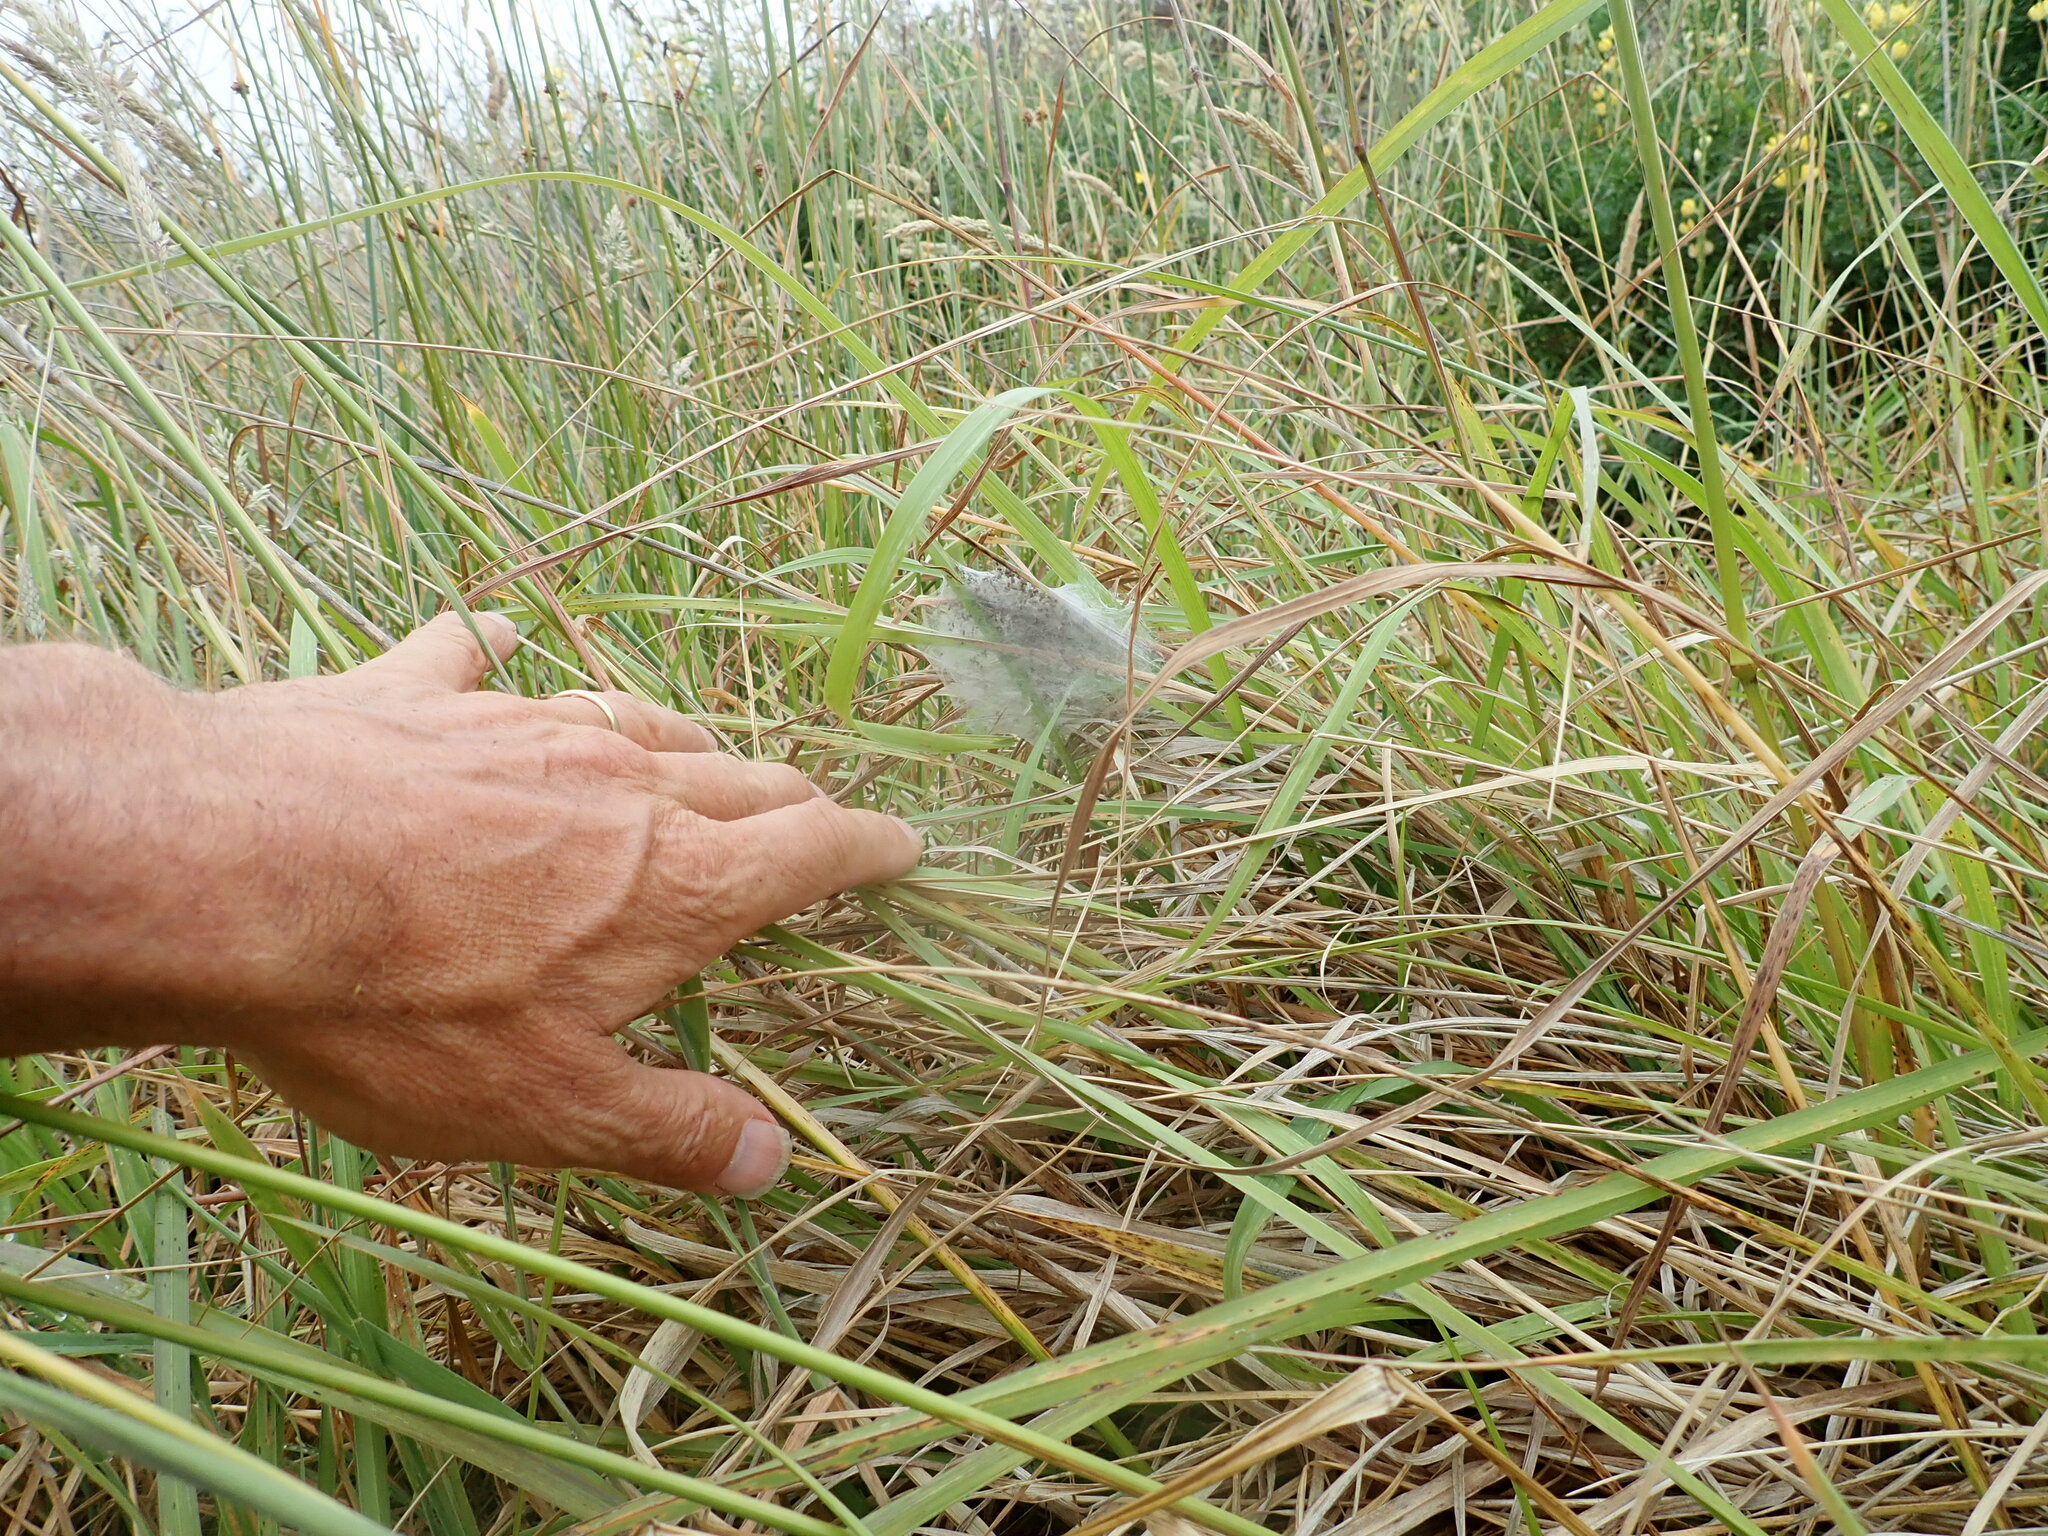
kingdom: Animalia
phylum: Arthropoda
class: Arachnida
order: Araneae
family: Pisauridae
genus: Dolomedes
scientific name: Dolomedes minor
